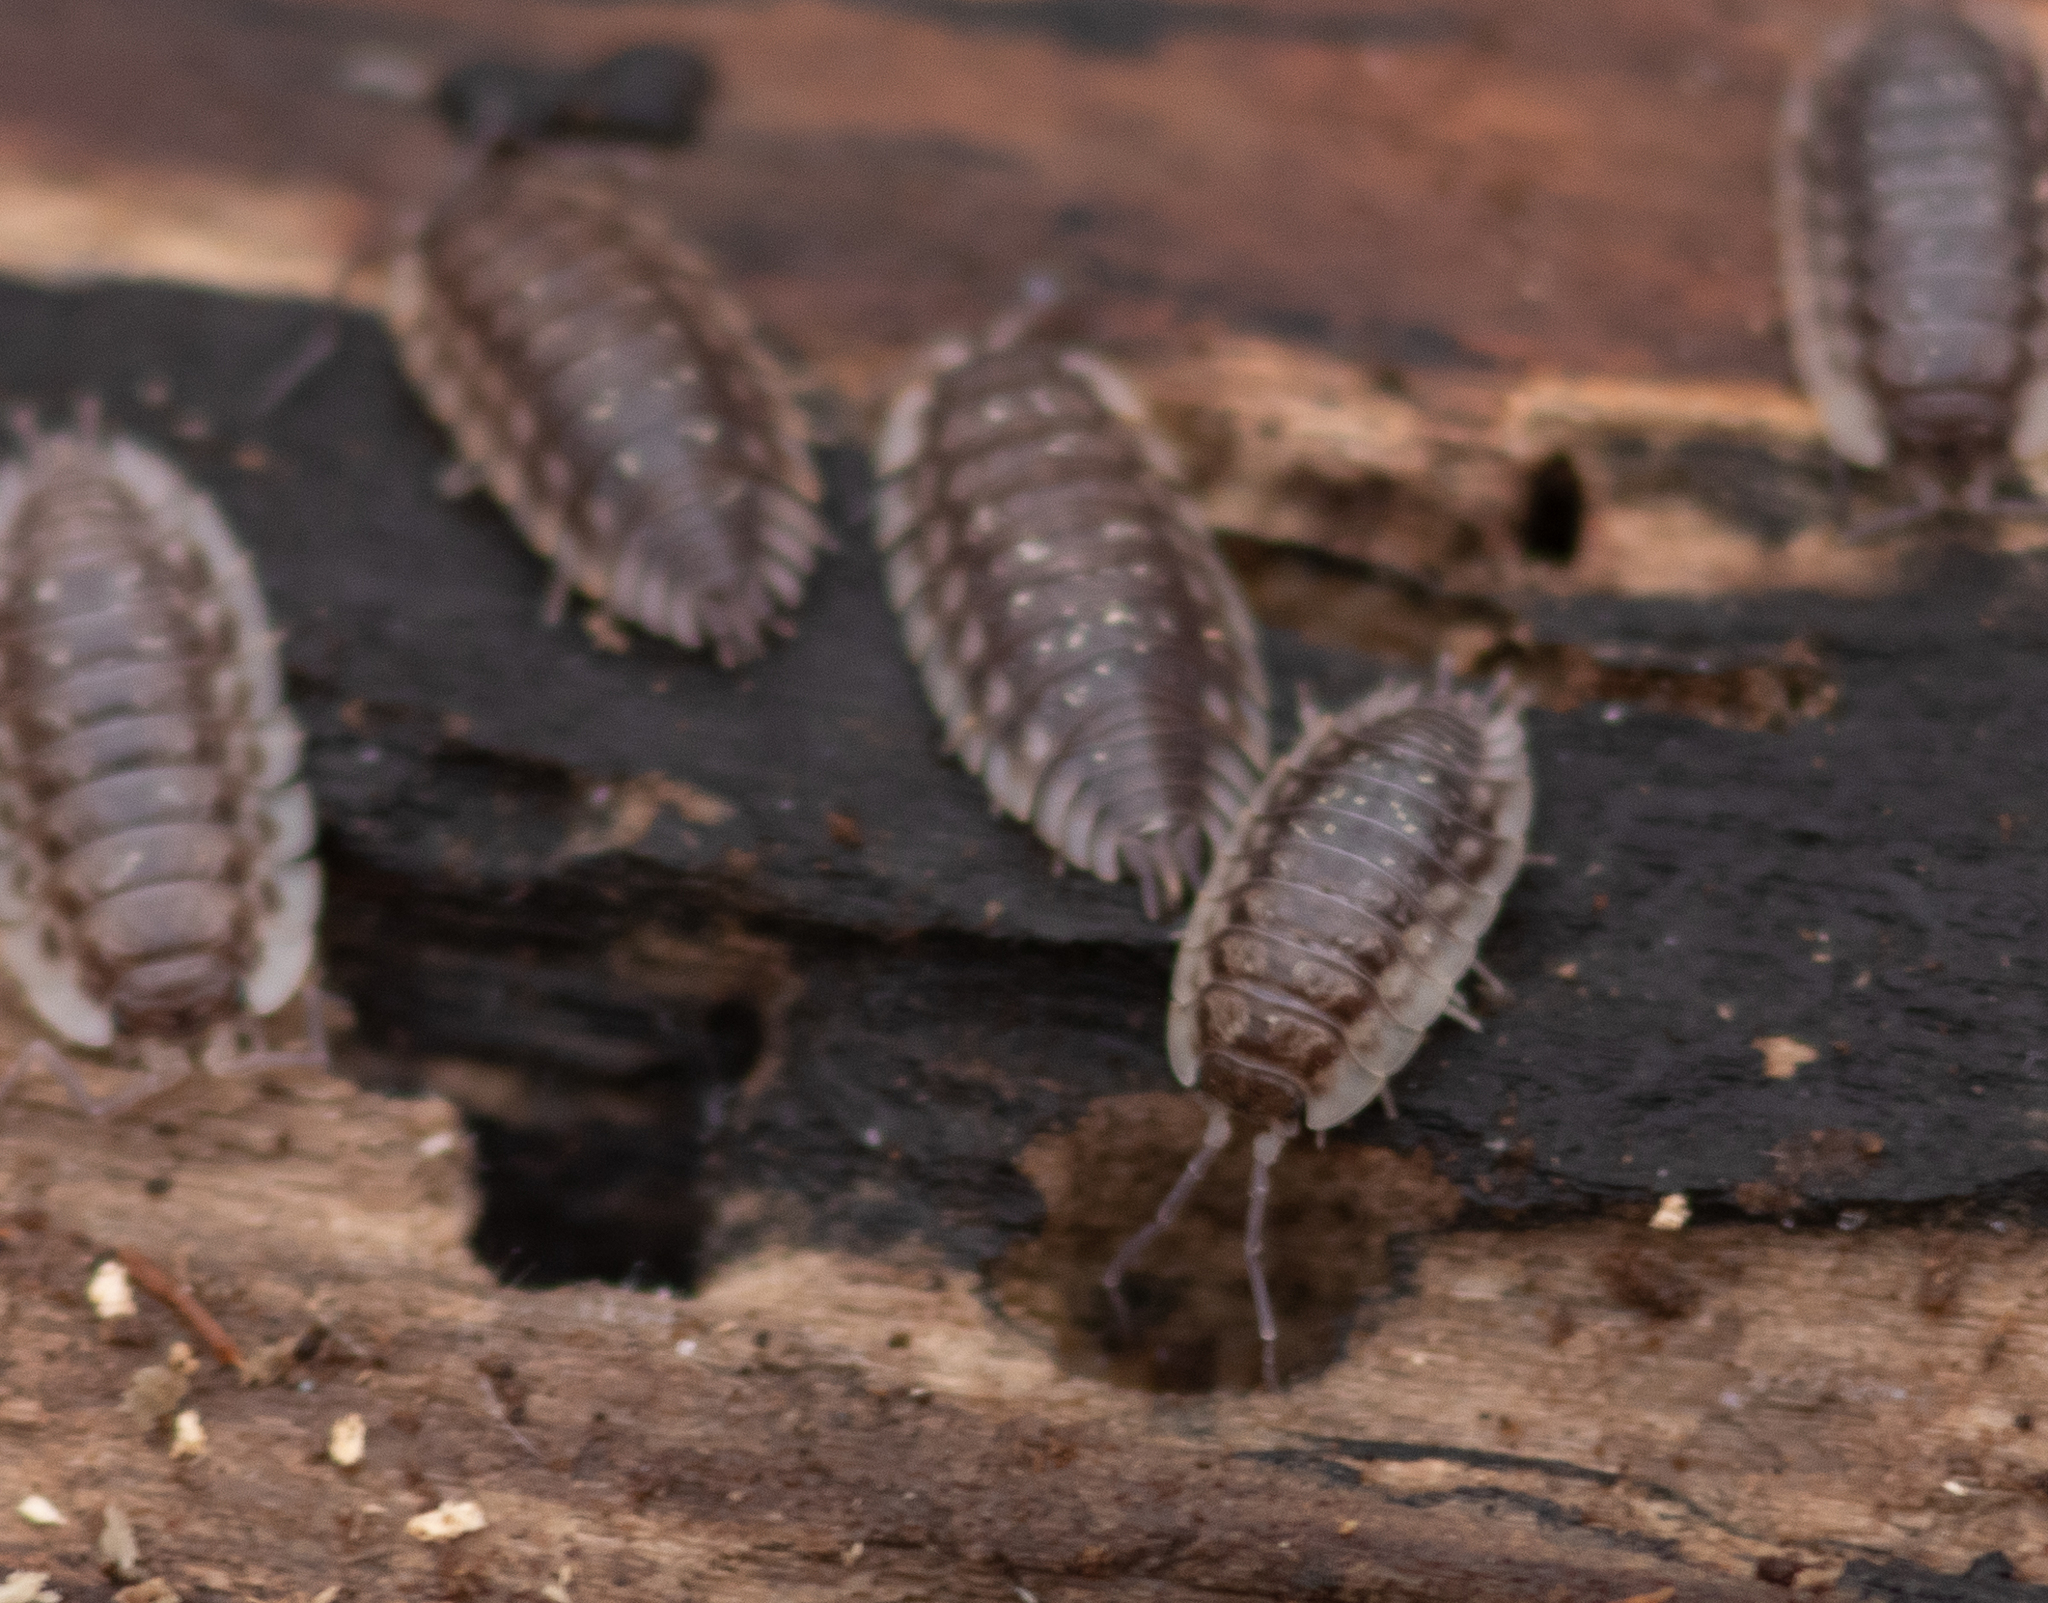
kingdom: Animalia
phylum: Arthropoda
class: Malacostraca
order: Isopoda
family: Oniscidae
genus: Oniscus
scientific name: Oniscus asellus
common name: Common shiny woodlouse
